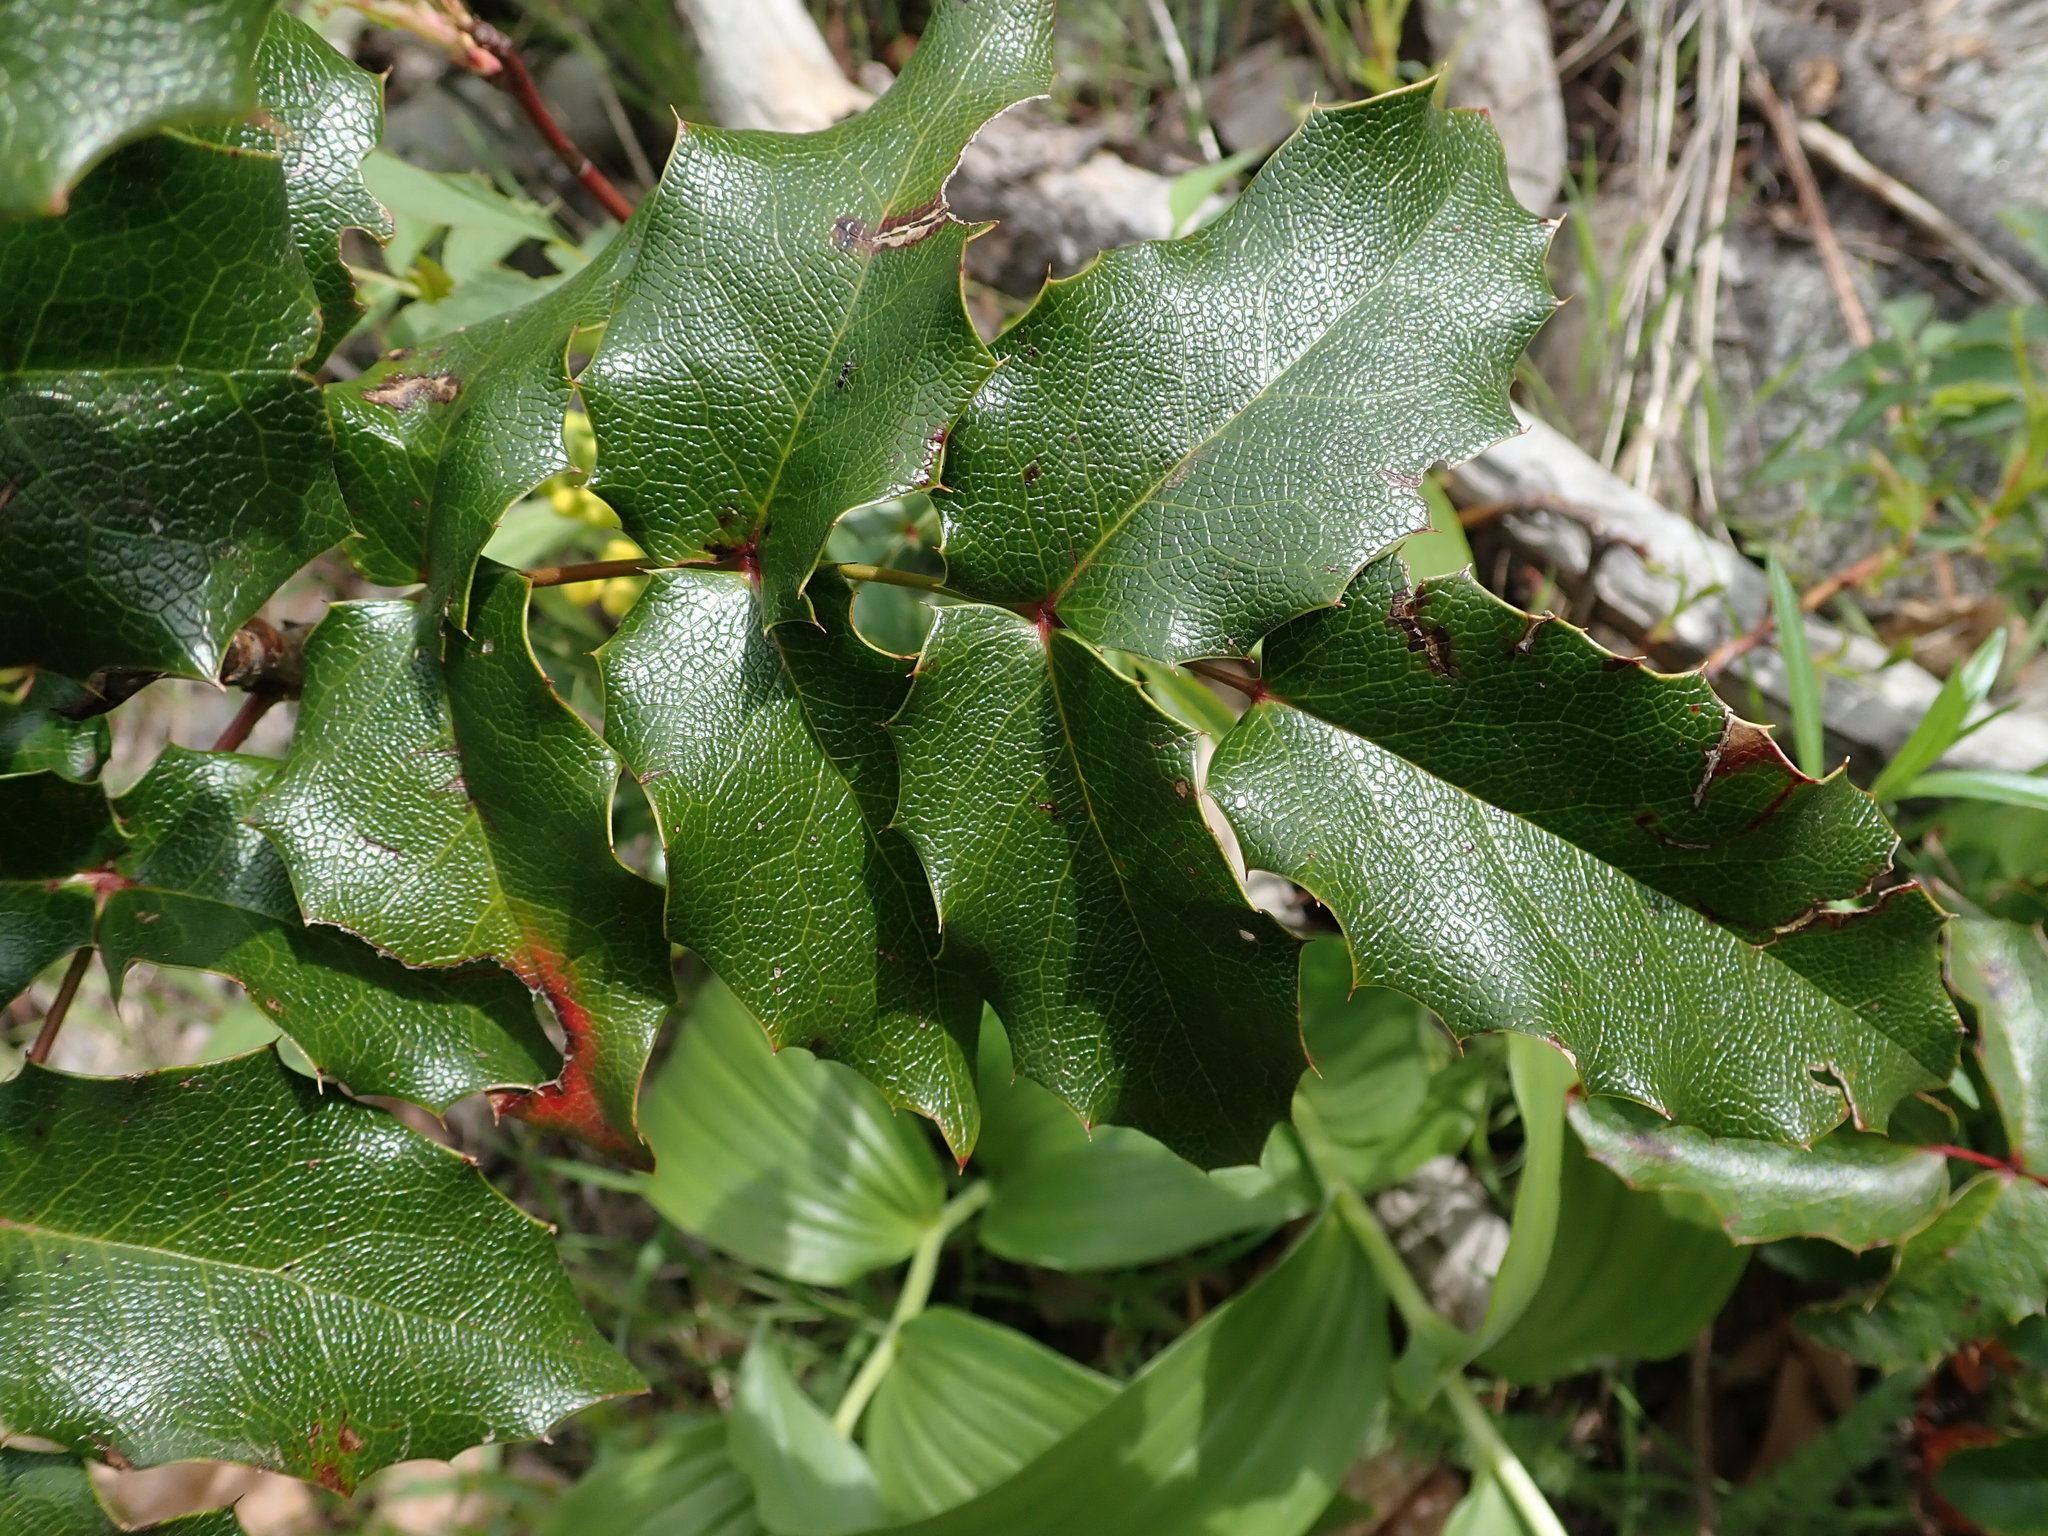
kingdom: Plantae
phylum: Tracheophyta
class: Magnoliopsida
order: Ranunculales
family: Berberidaceae
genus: Mahonia
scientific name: Mahonia aquifolium
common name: Oregon-grape
